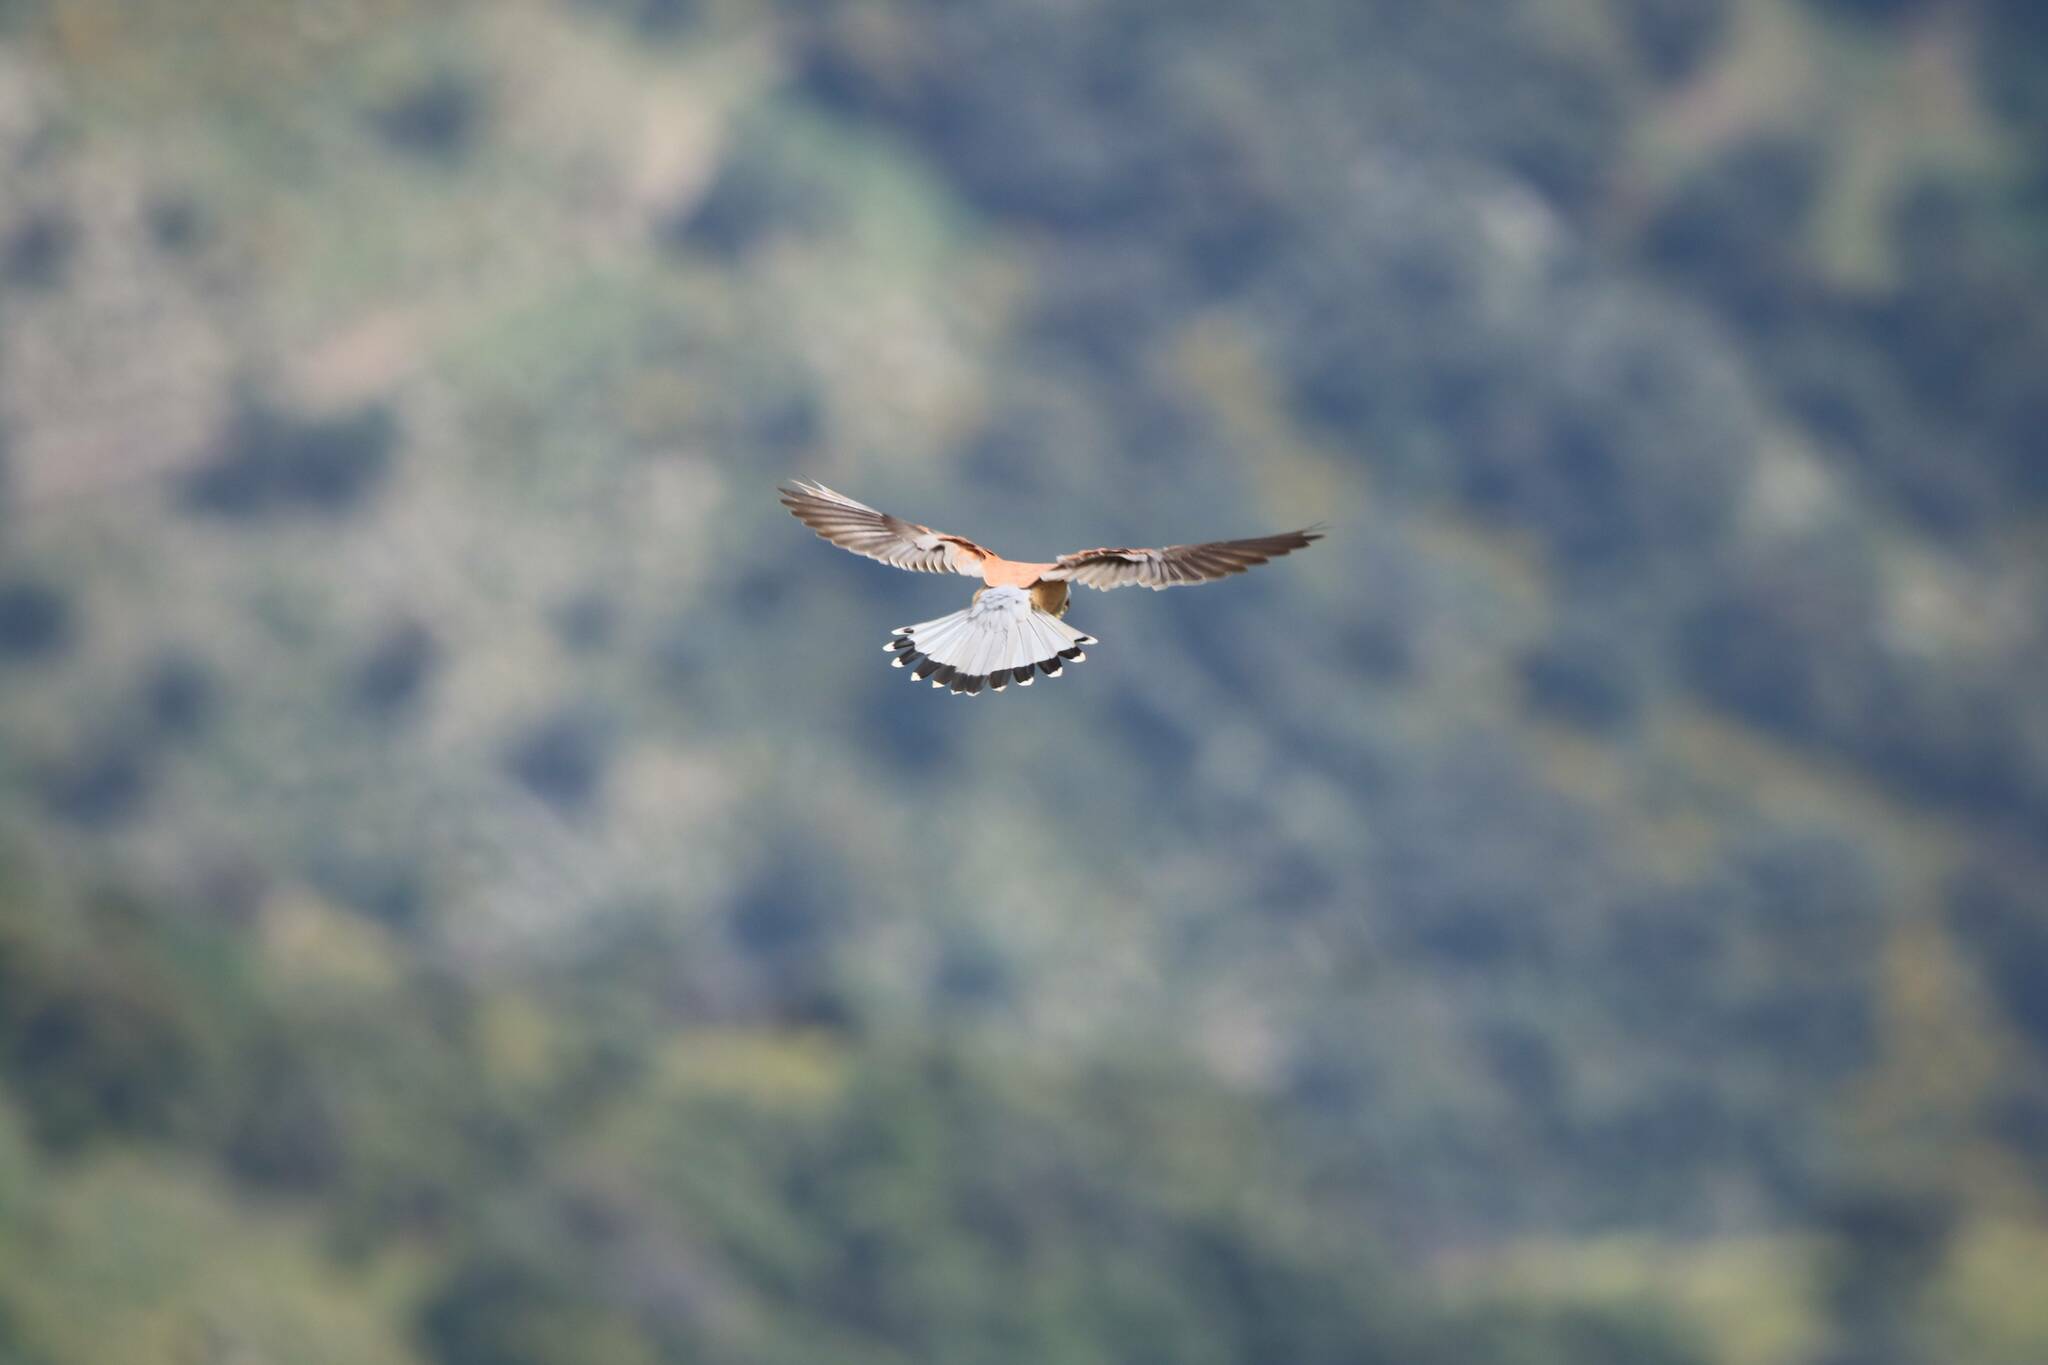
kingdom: Animalia
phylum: Chordata
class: Aves
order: Falconiformes
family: Falconidae
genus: Falco
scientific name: Falco naumanni
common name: Lesser kestrel
